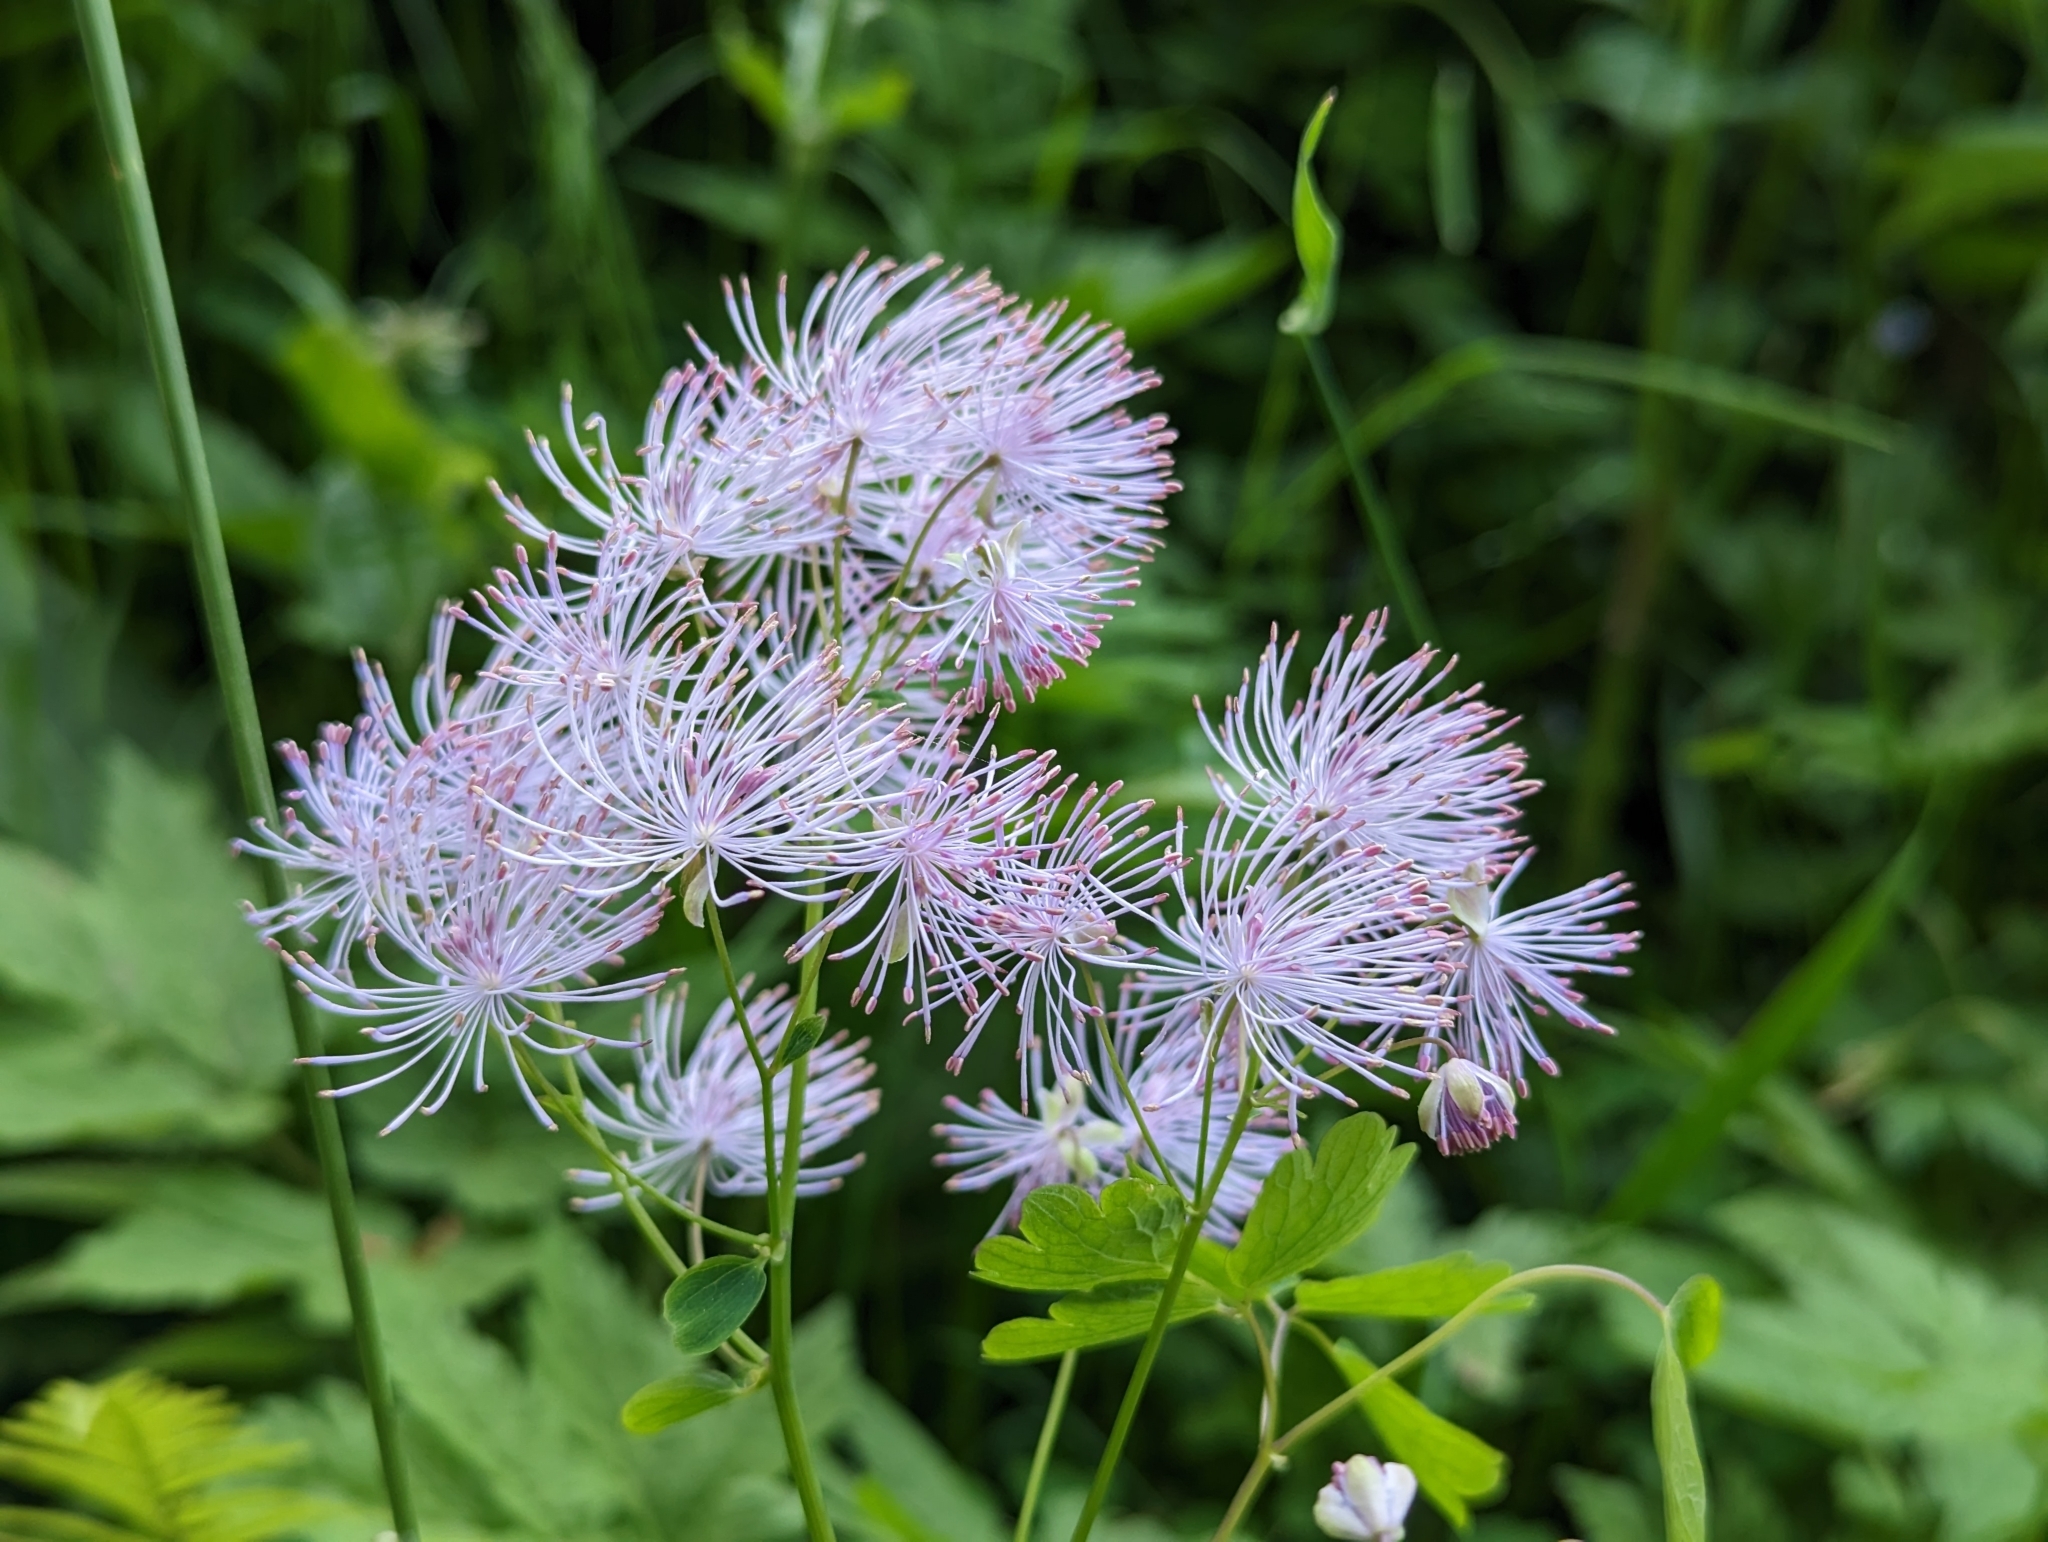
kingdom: Plantae
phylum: Tracheophyta
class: Magnoliopsida
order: Ranunculales
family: Ranunculaceae
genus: Thalictrum
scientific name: Thalictrum aquilegiifolium
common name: French meadow-rue
